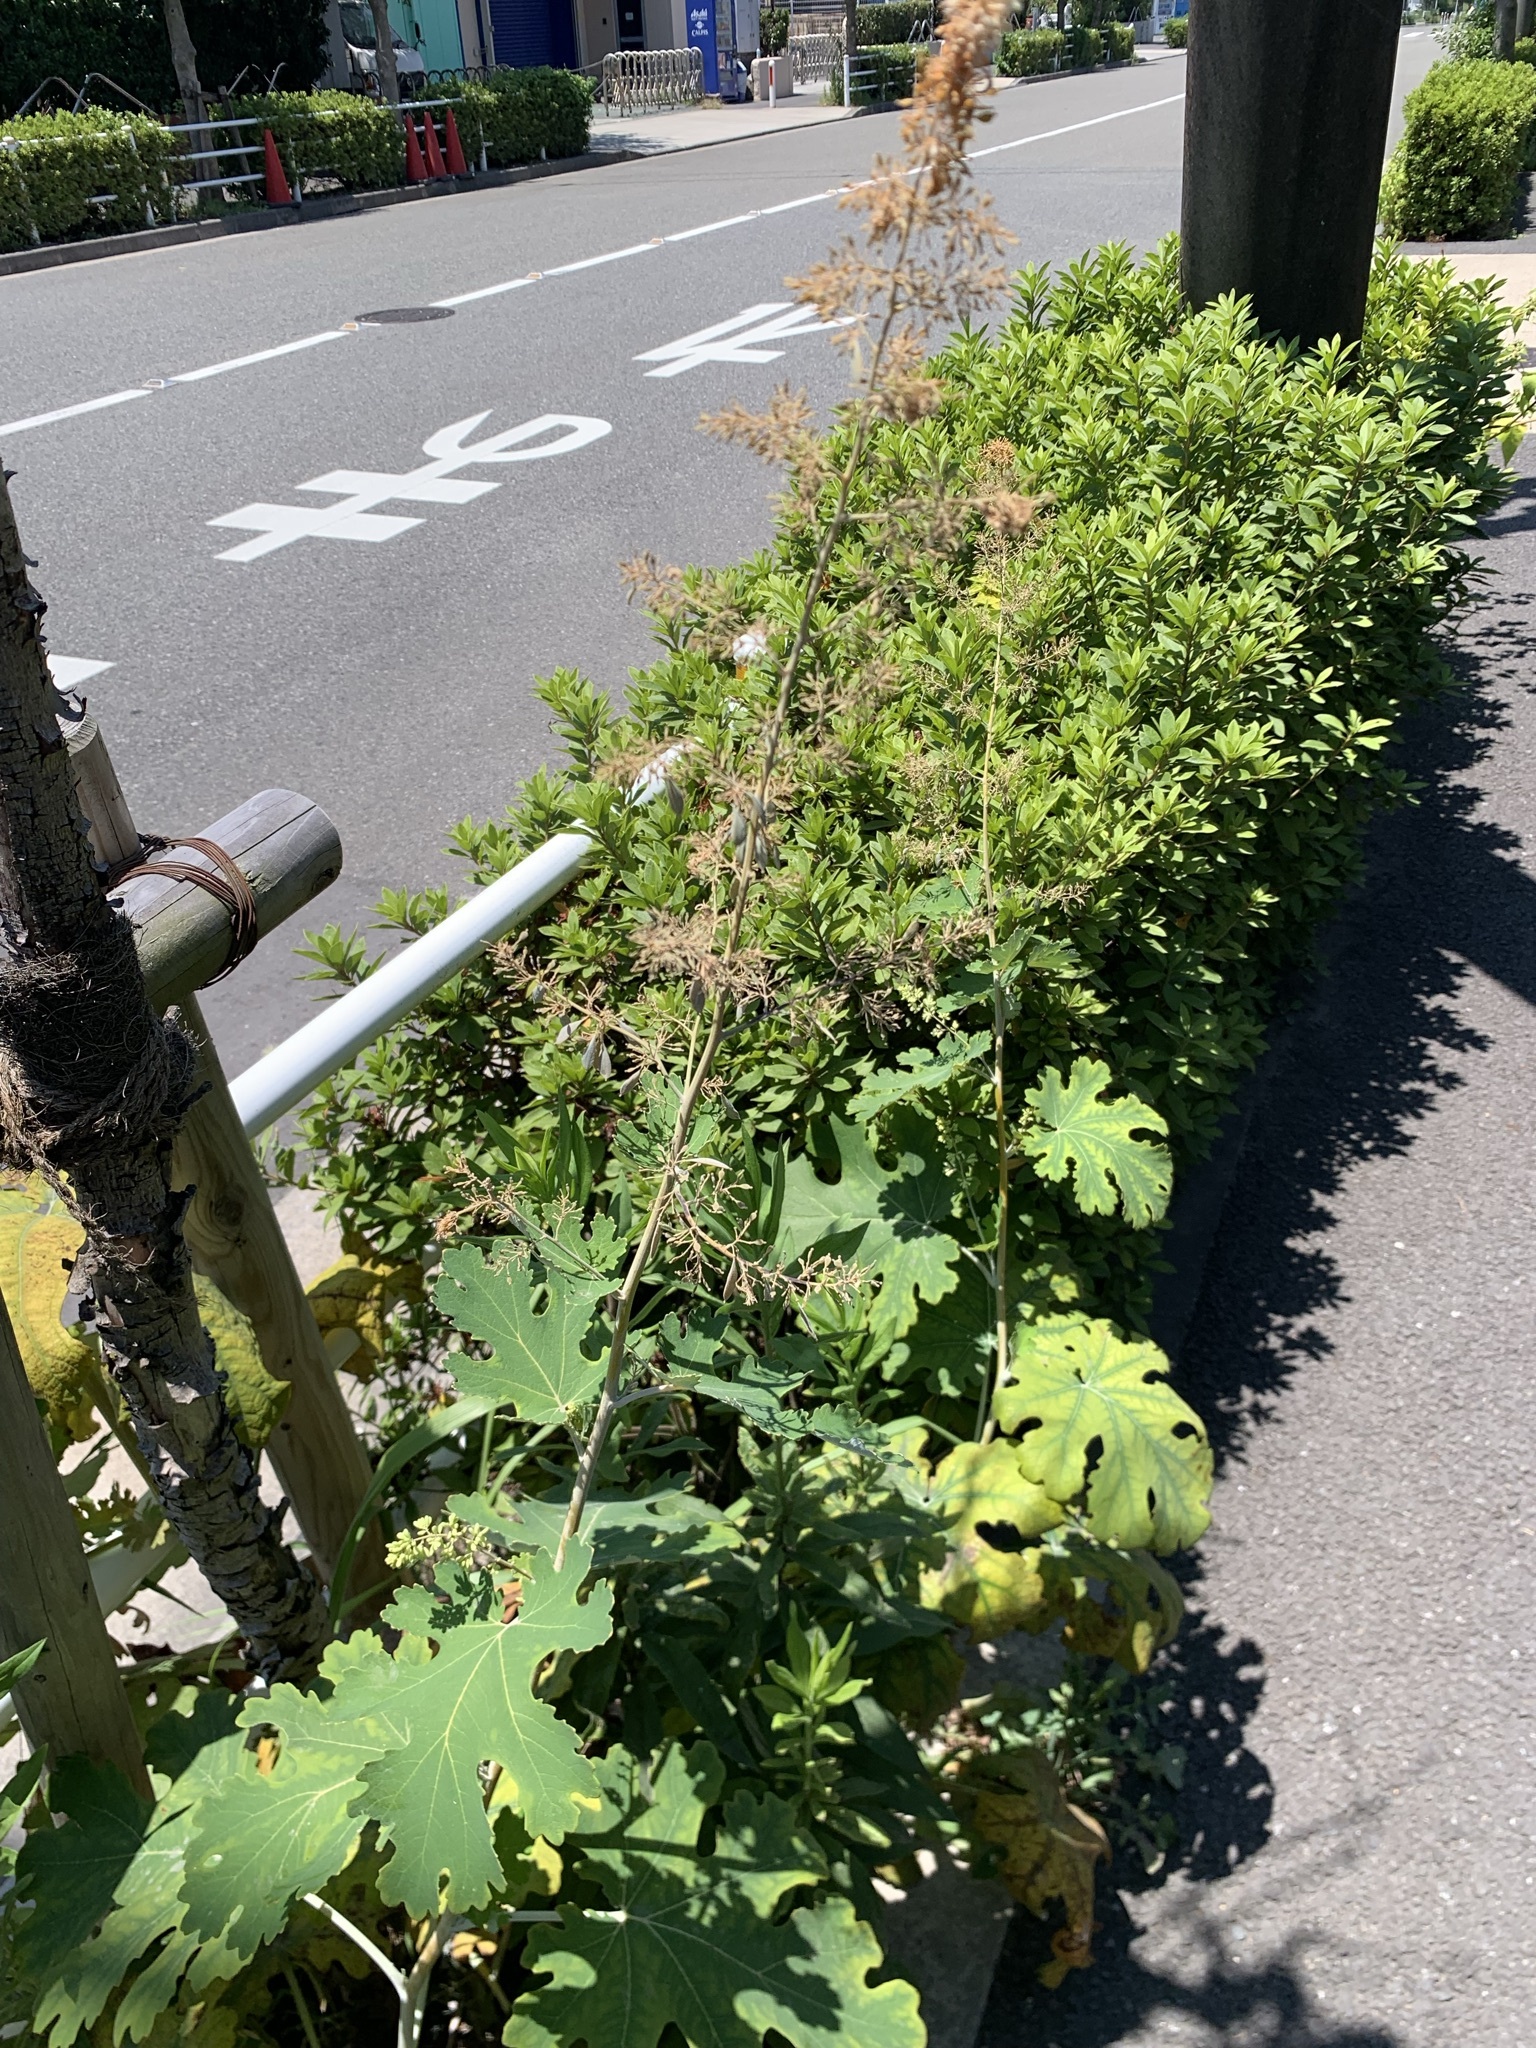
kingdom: Plantae
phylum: Tracheophyta
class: Magnoliopsida
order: Ranunculales
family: Papaveraceae
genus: Macleaya
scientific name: Macleaya cordata
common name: Plume poppy
